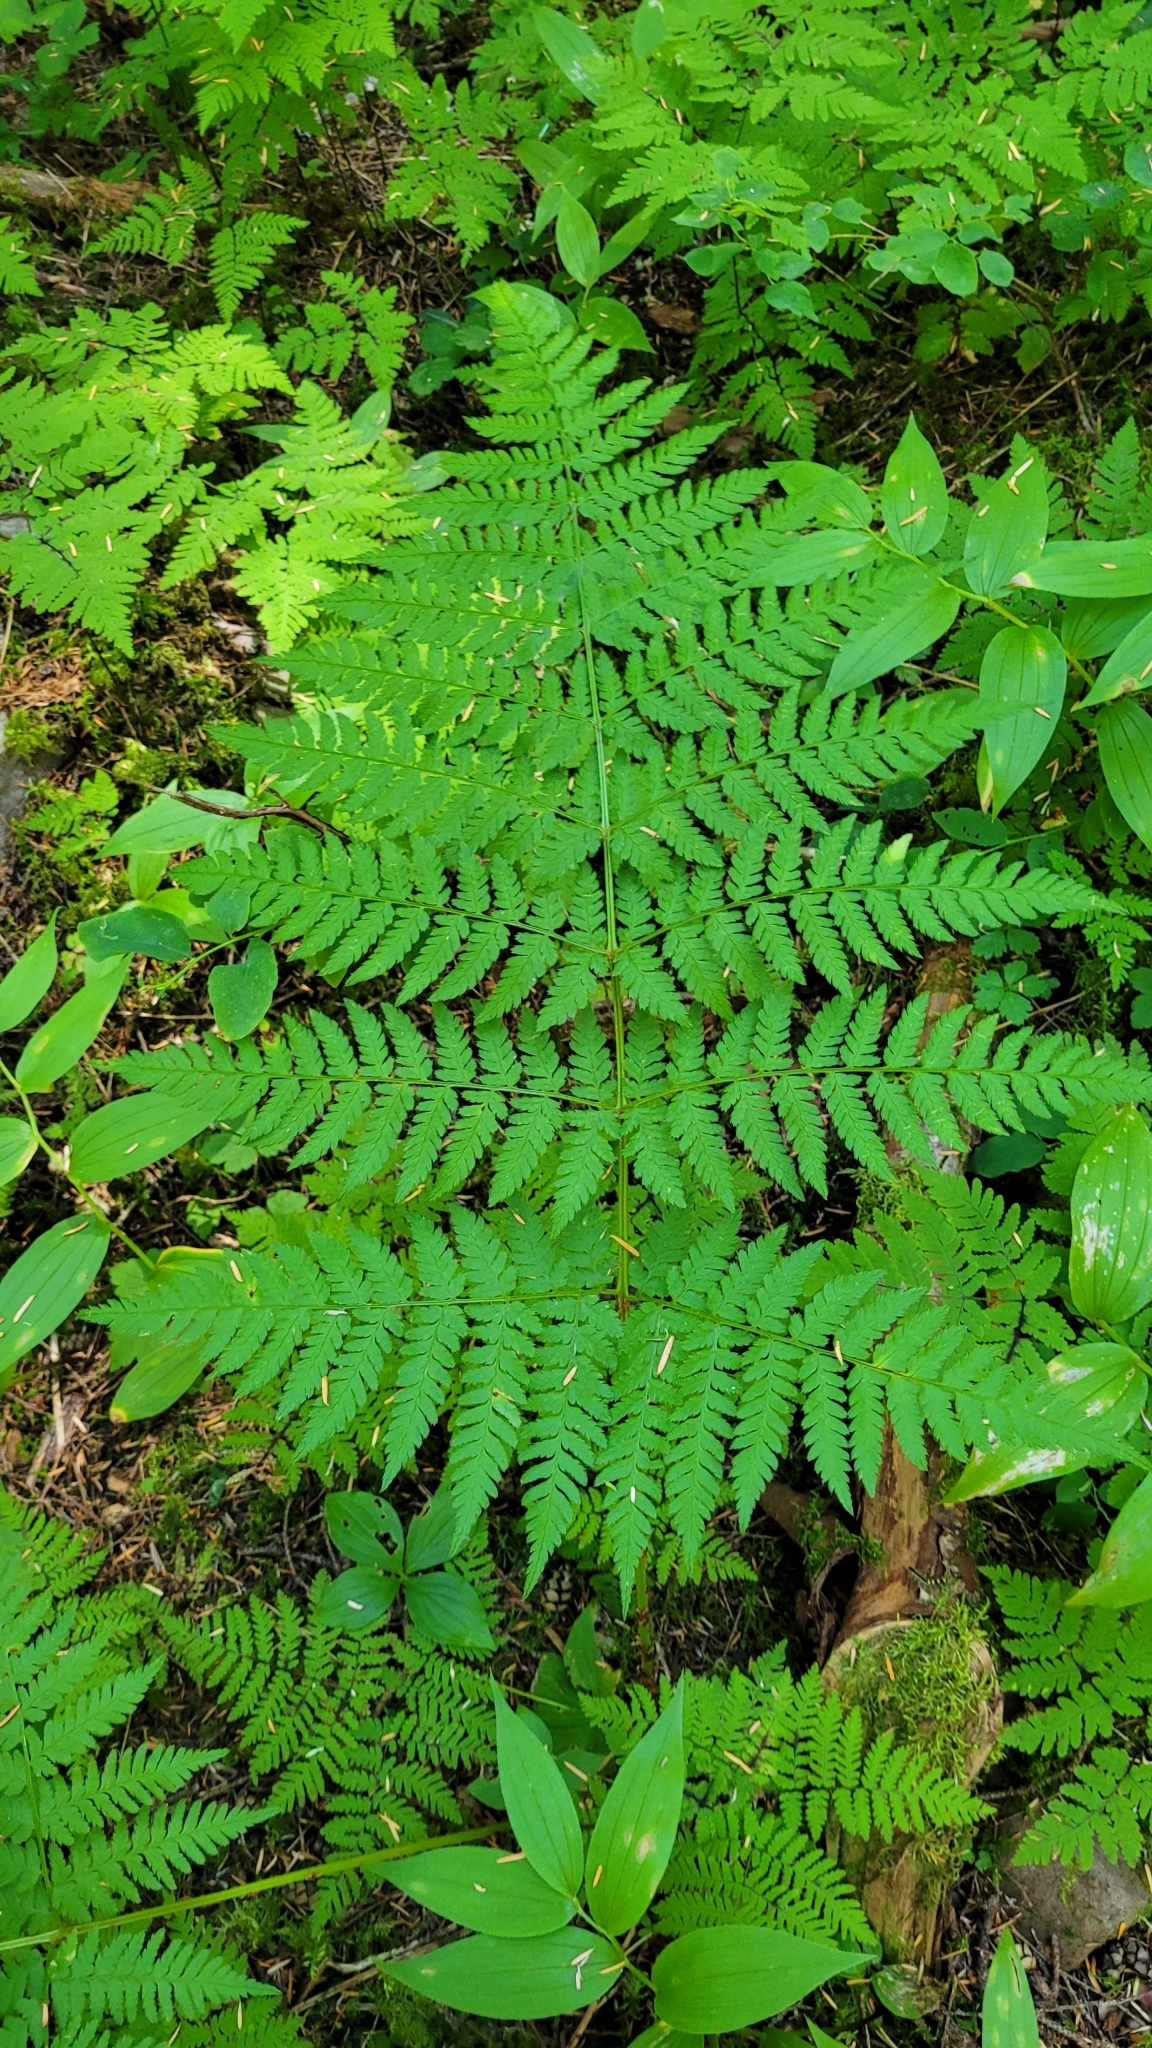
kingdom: Plantae
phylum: Tracheophyta
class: Polypodiopsida
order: Polypodiales
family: Dryopteridaceae
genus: Dryopteris
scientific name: Dryopteris expansa
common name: Northern buckler fern
